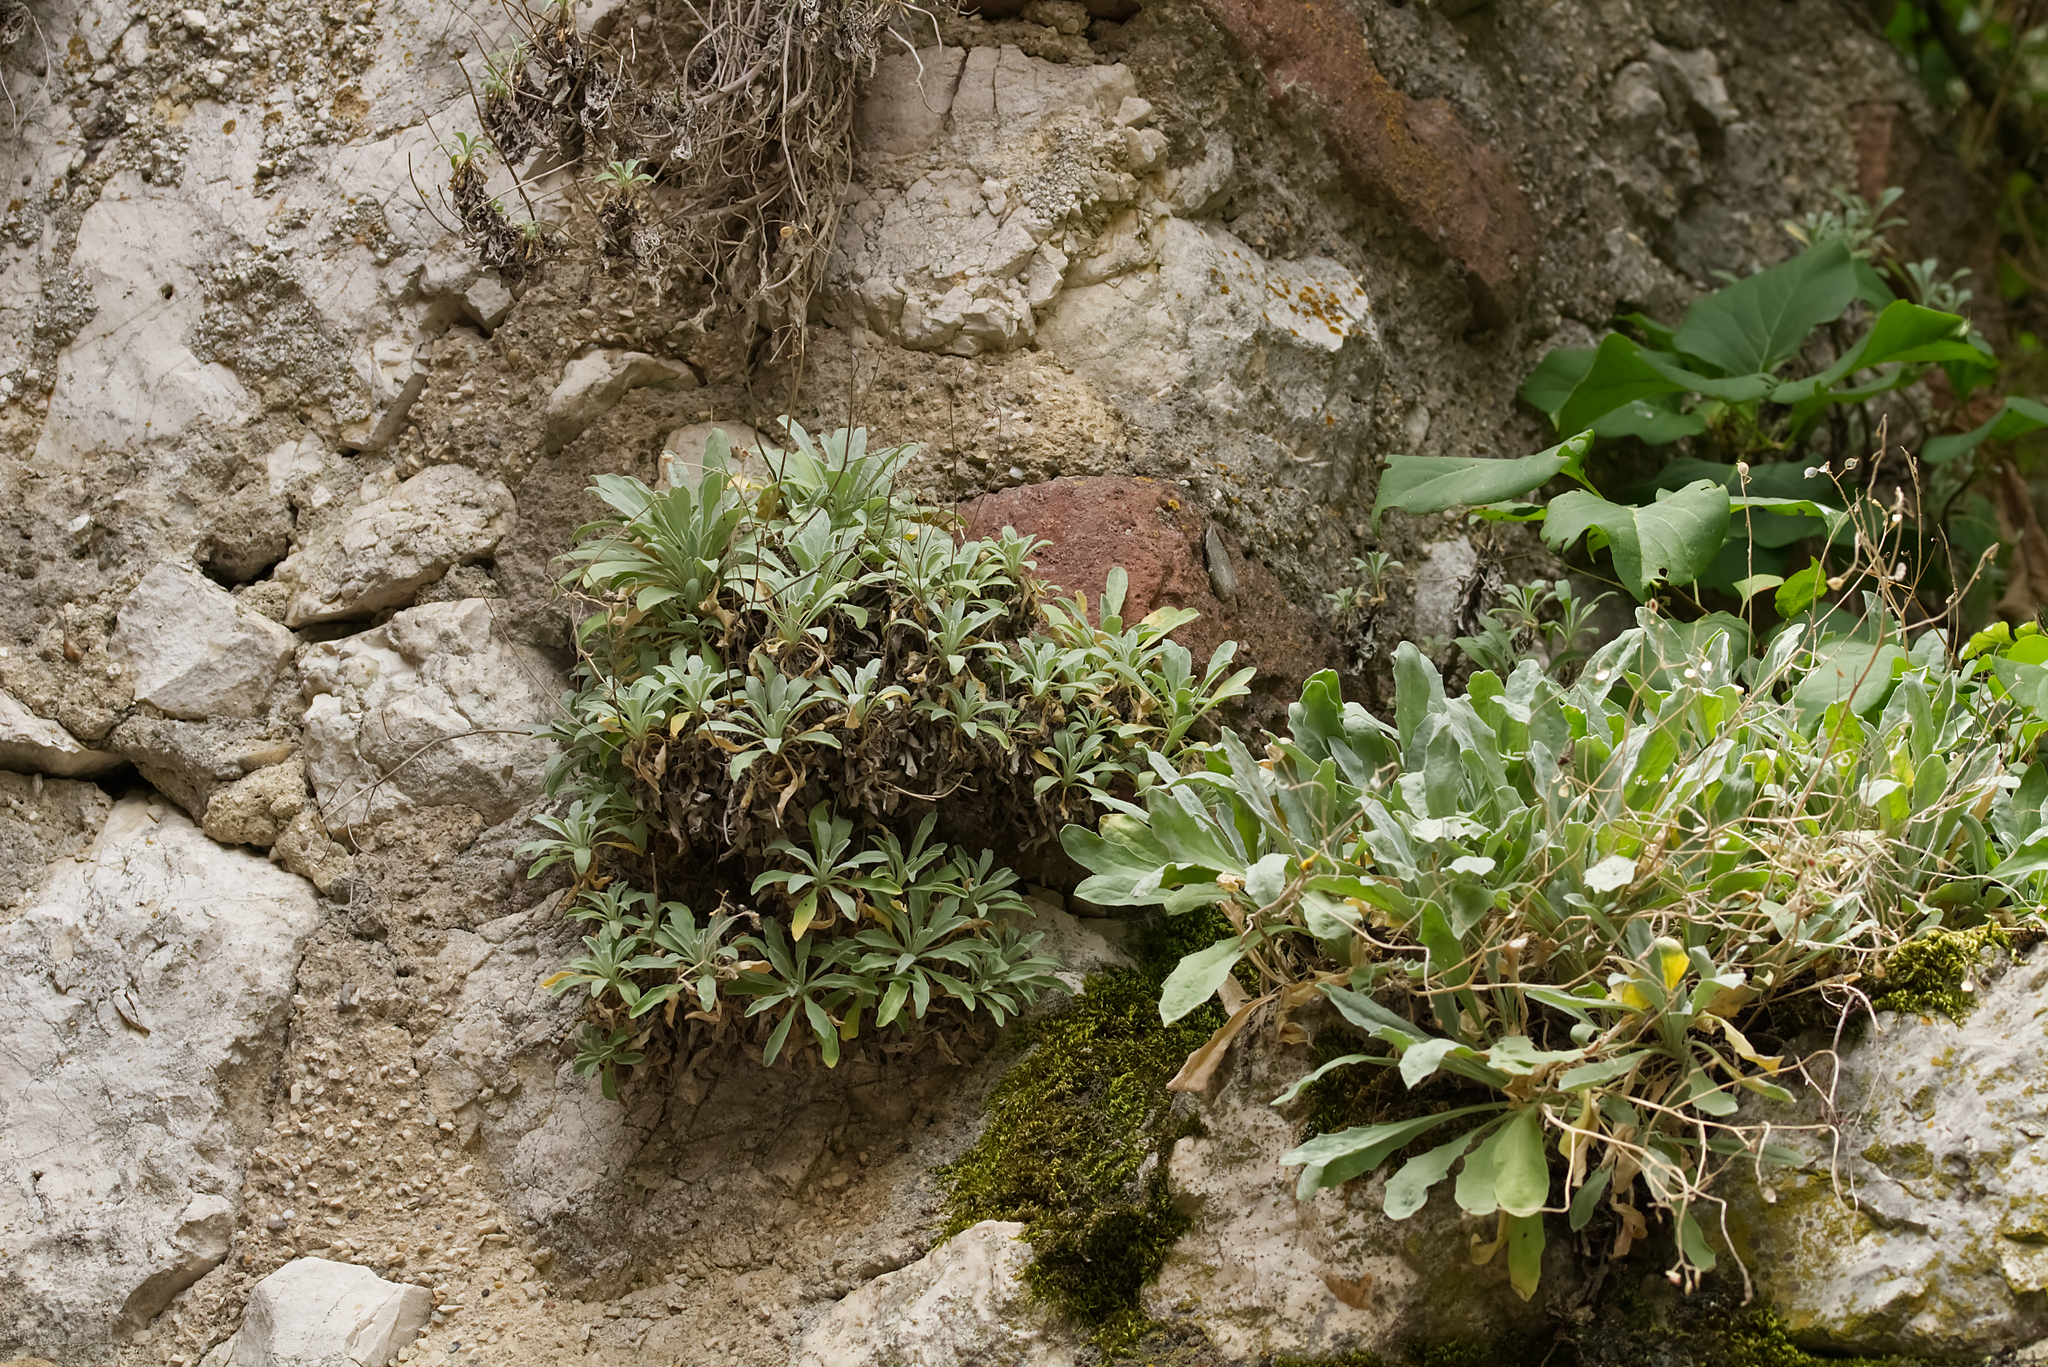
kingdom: Plantae
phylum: Tracheophyta
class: Magnoliopsida
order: Brassicales
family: Brassicaceae
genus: Aurinia
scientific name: Aurinia saxatilis
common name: Golden-tuft alyssum
